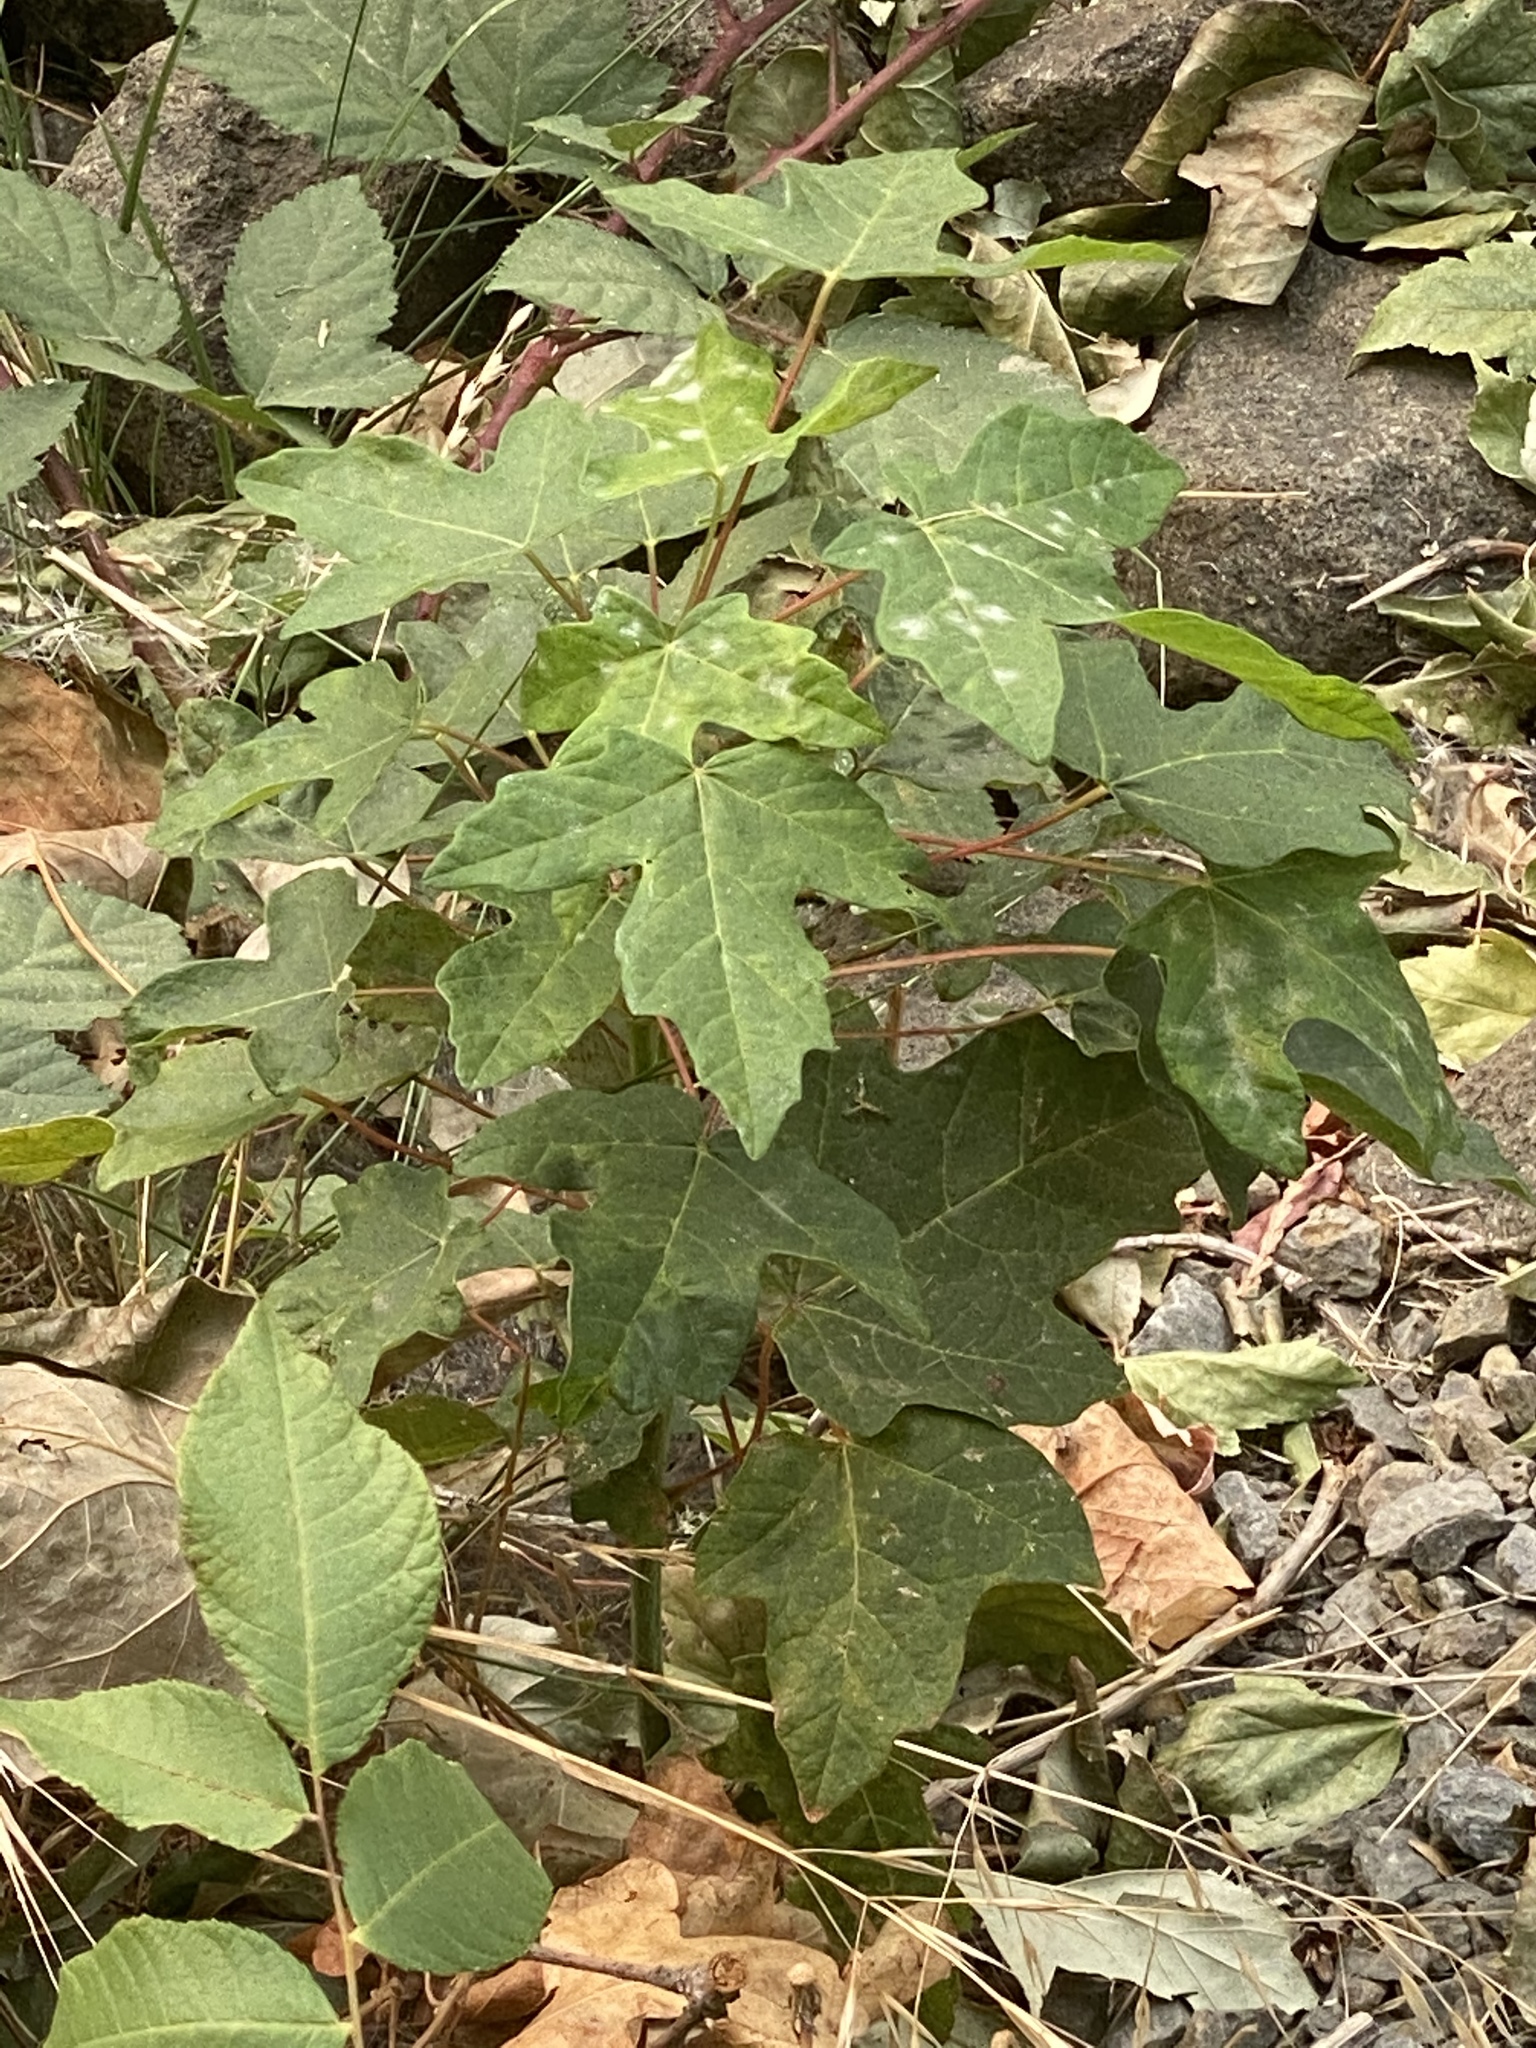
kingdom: Plantae
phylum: Tracheophyta
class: Magnoliopsida
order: Sapindales
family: Sapindaceae
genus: Acer
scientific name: Acer macrophyllum
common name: Oregon maple
